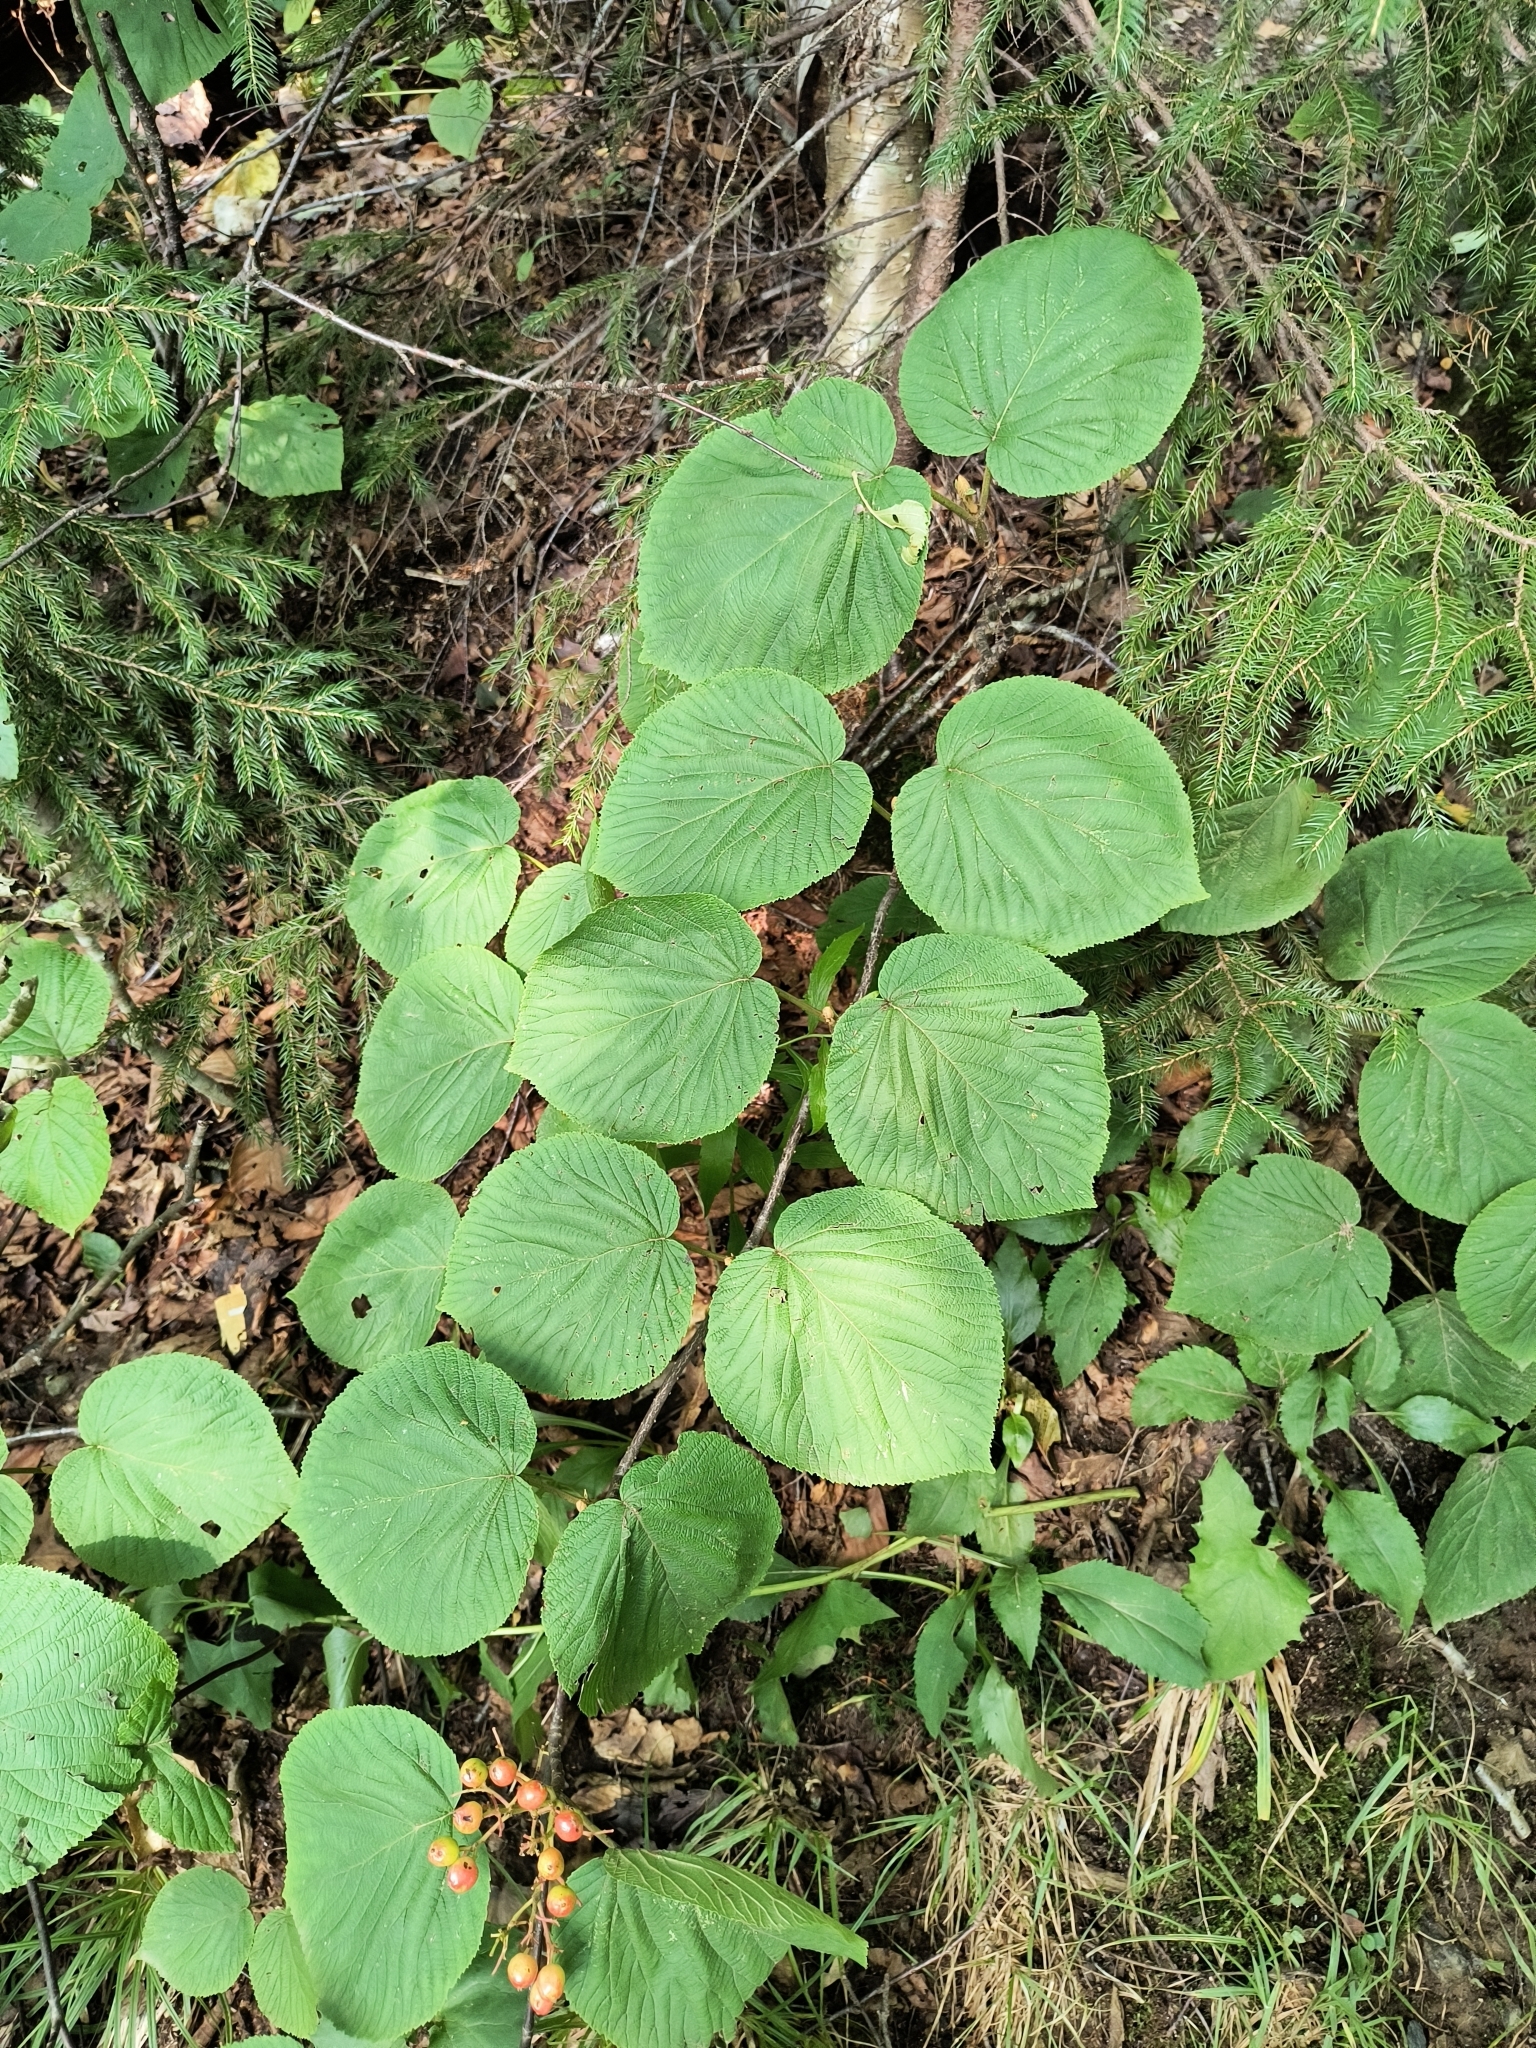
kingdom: Plantae
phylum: Tracheophyta
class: Magnoliopsida
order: Dipsacales
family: Viburnaceae
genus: Viburnum
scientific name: Viburnum lantanoides
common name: Hobblebush
